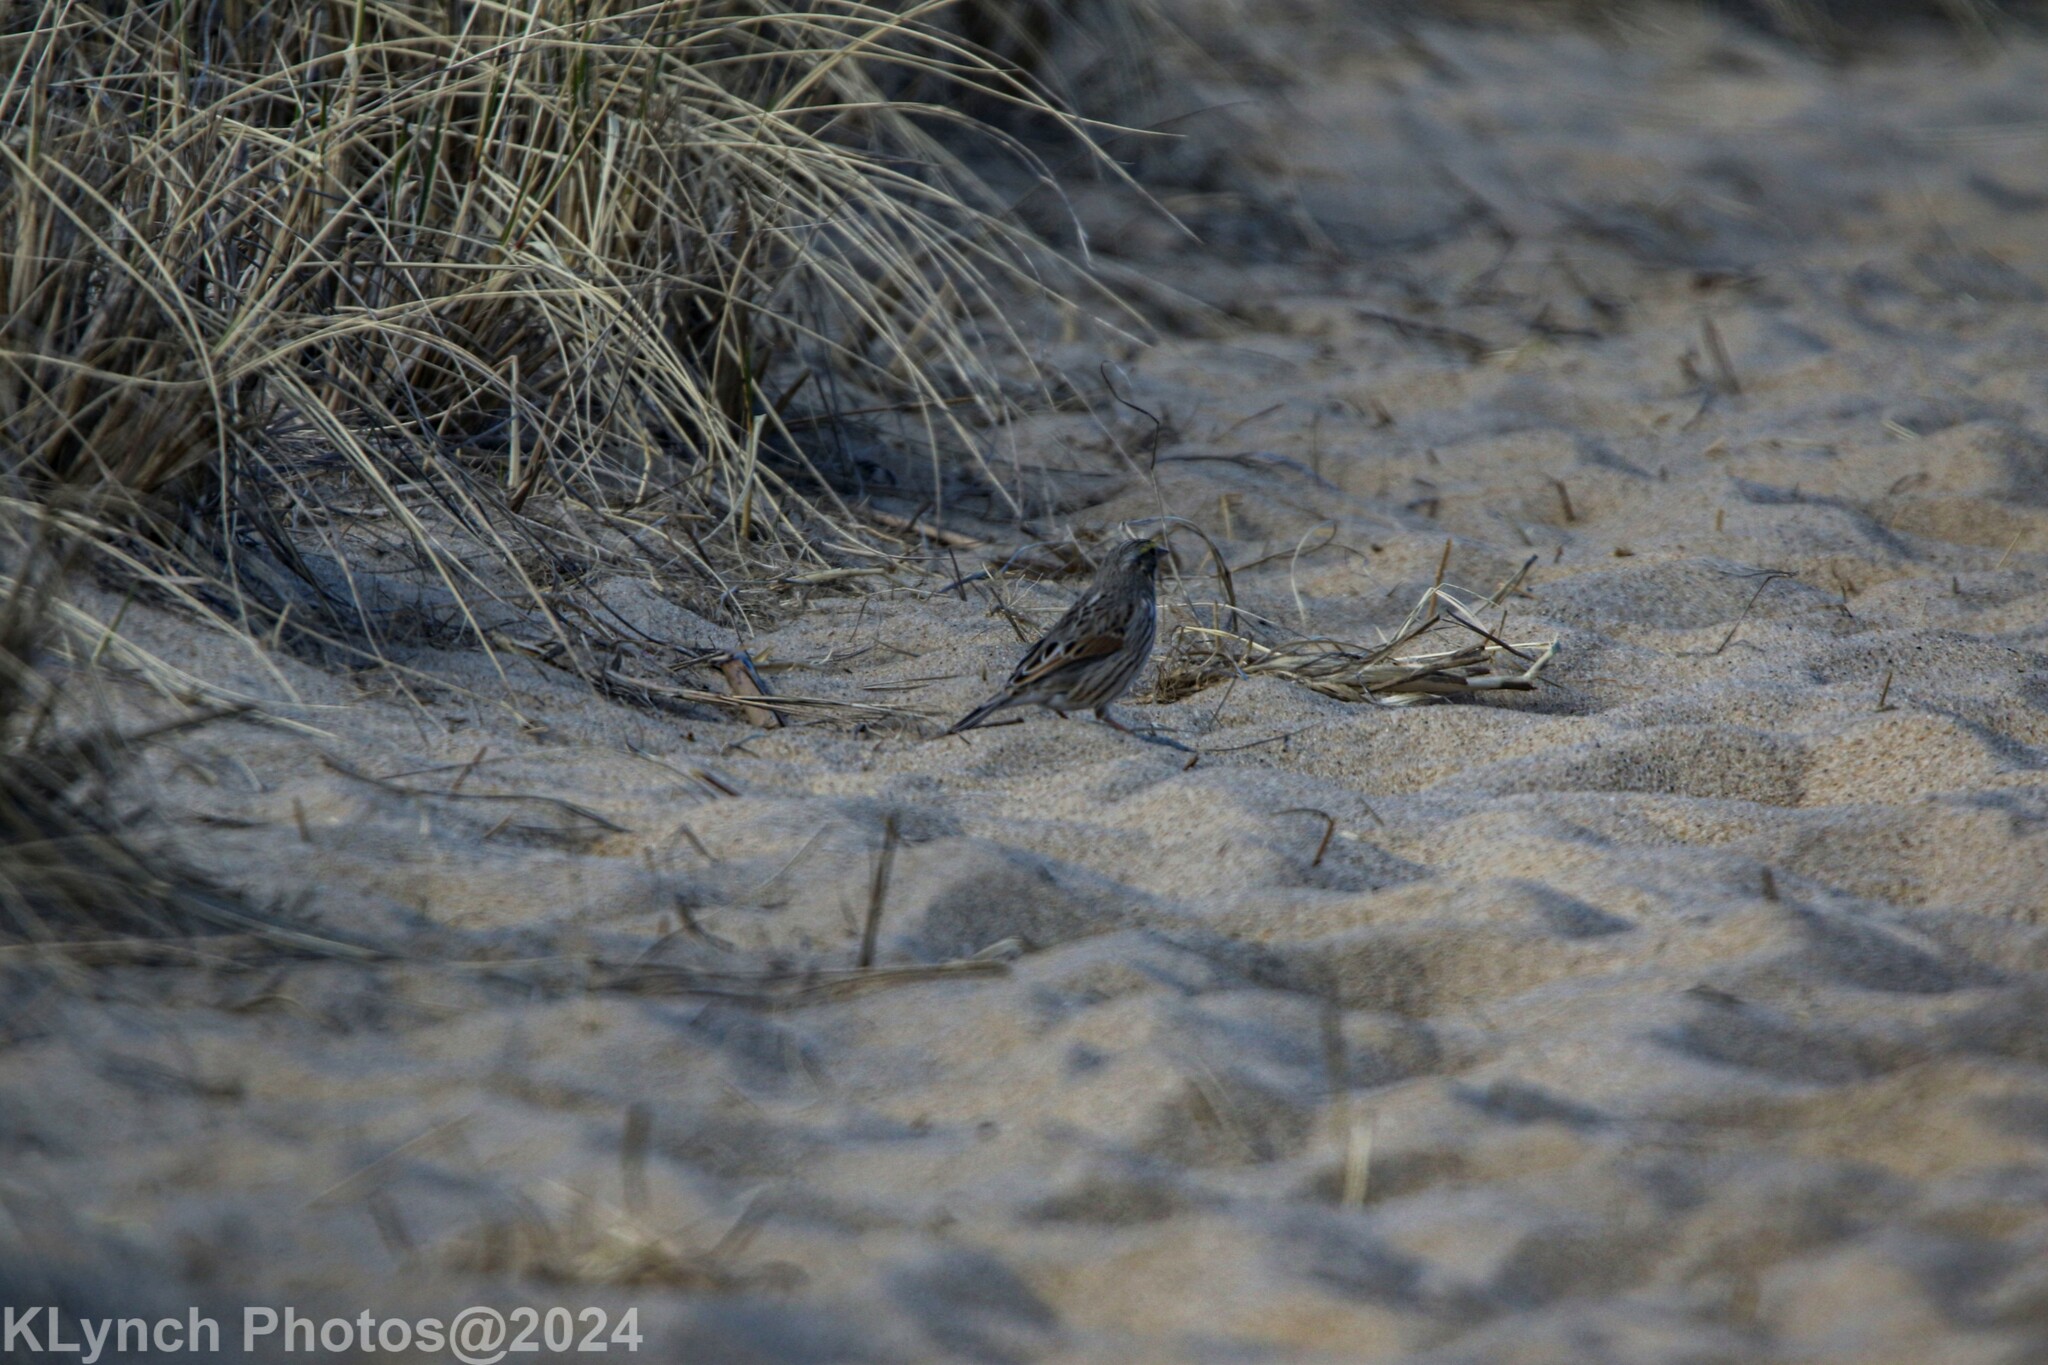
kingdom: Animalia
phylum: Chordata
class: Aves
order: Passeriformes
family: Passerellidae
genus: Passerculus
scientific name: Passerculus sandwichensis
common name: Savannah sparrow
